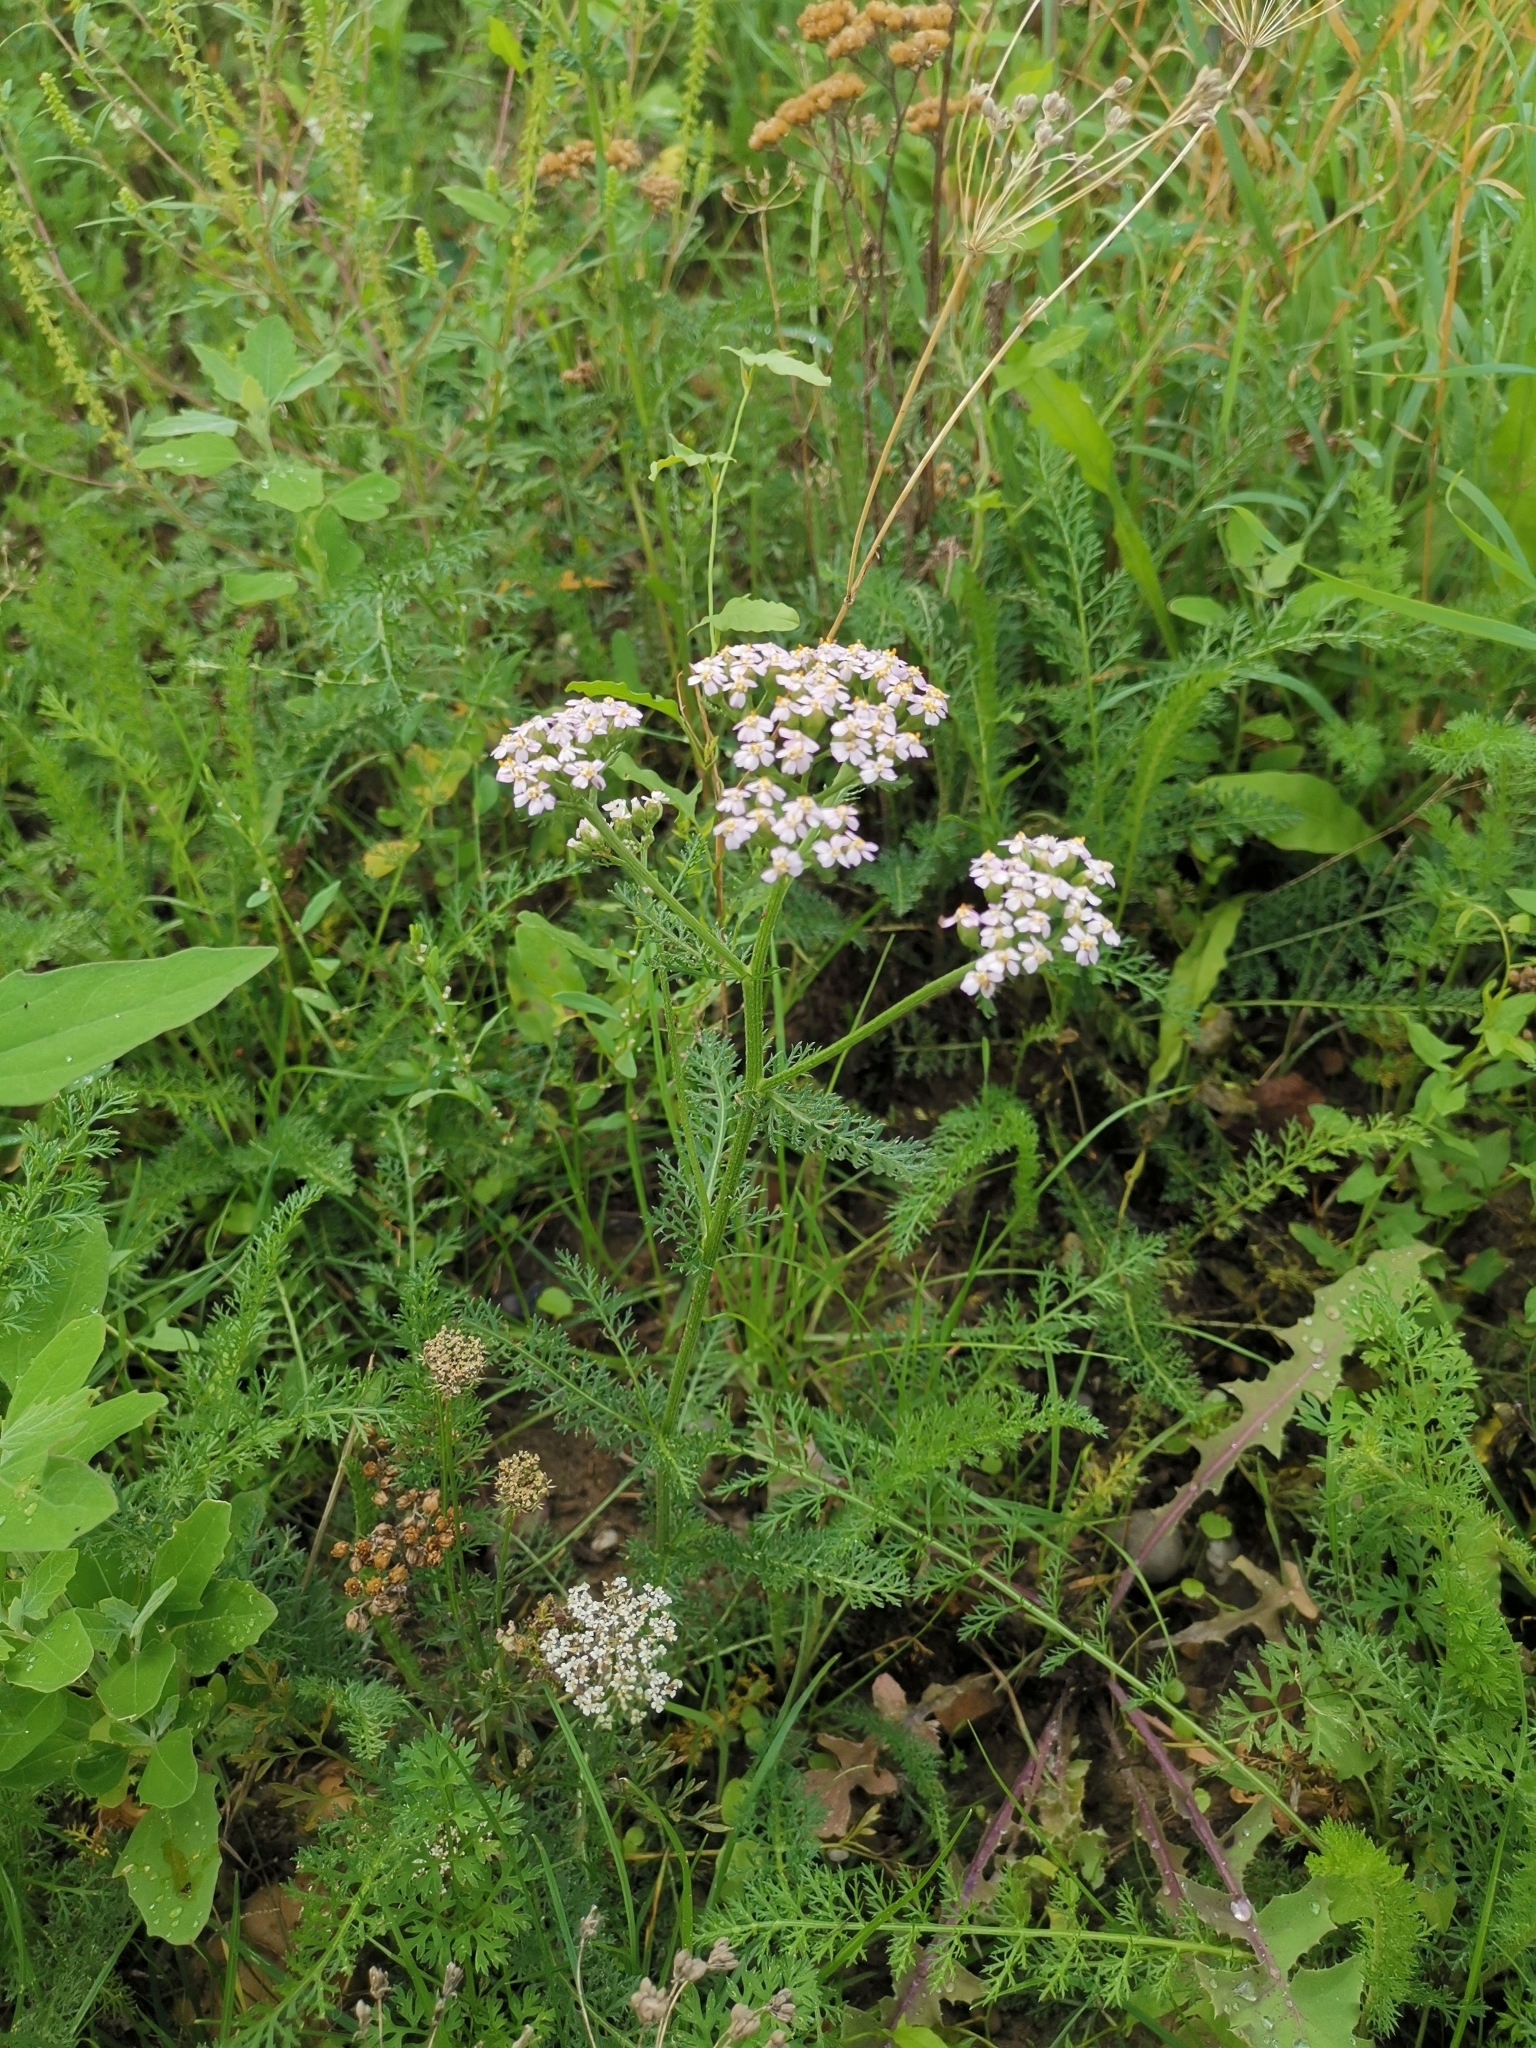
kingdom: Plantae
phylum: Tracheophyta
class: Magnoliopsida
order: Asterales
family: Asteraceae
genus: Achillea
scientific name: Achillea millefolium
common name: Yarrow
